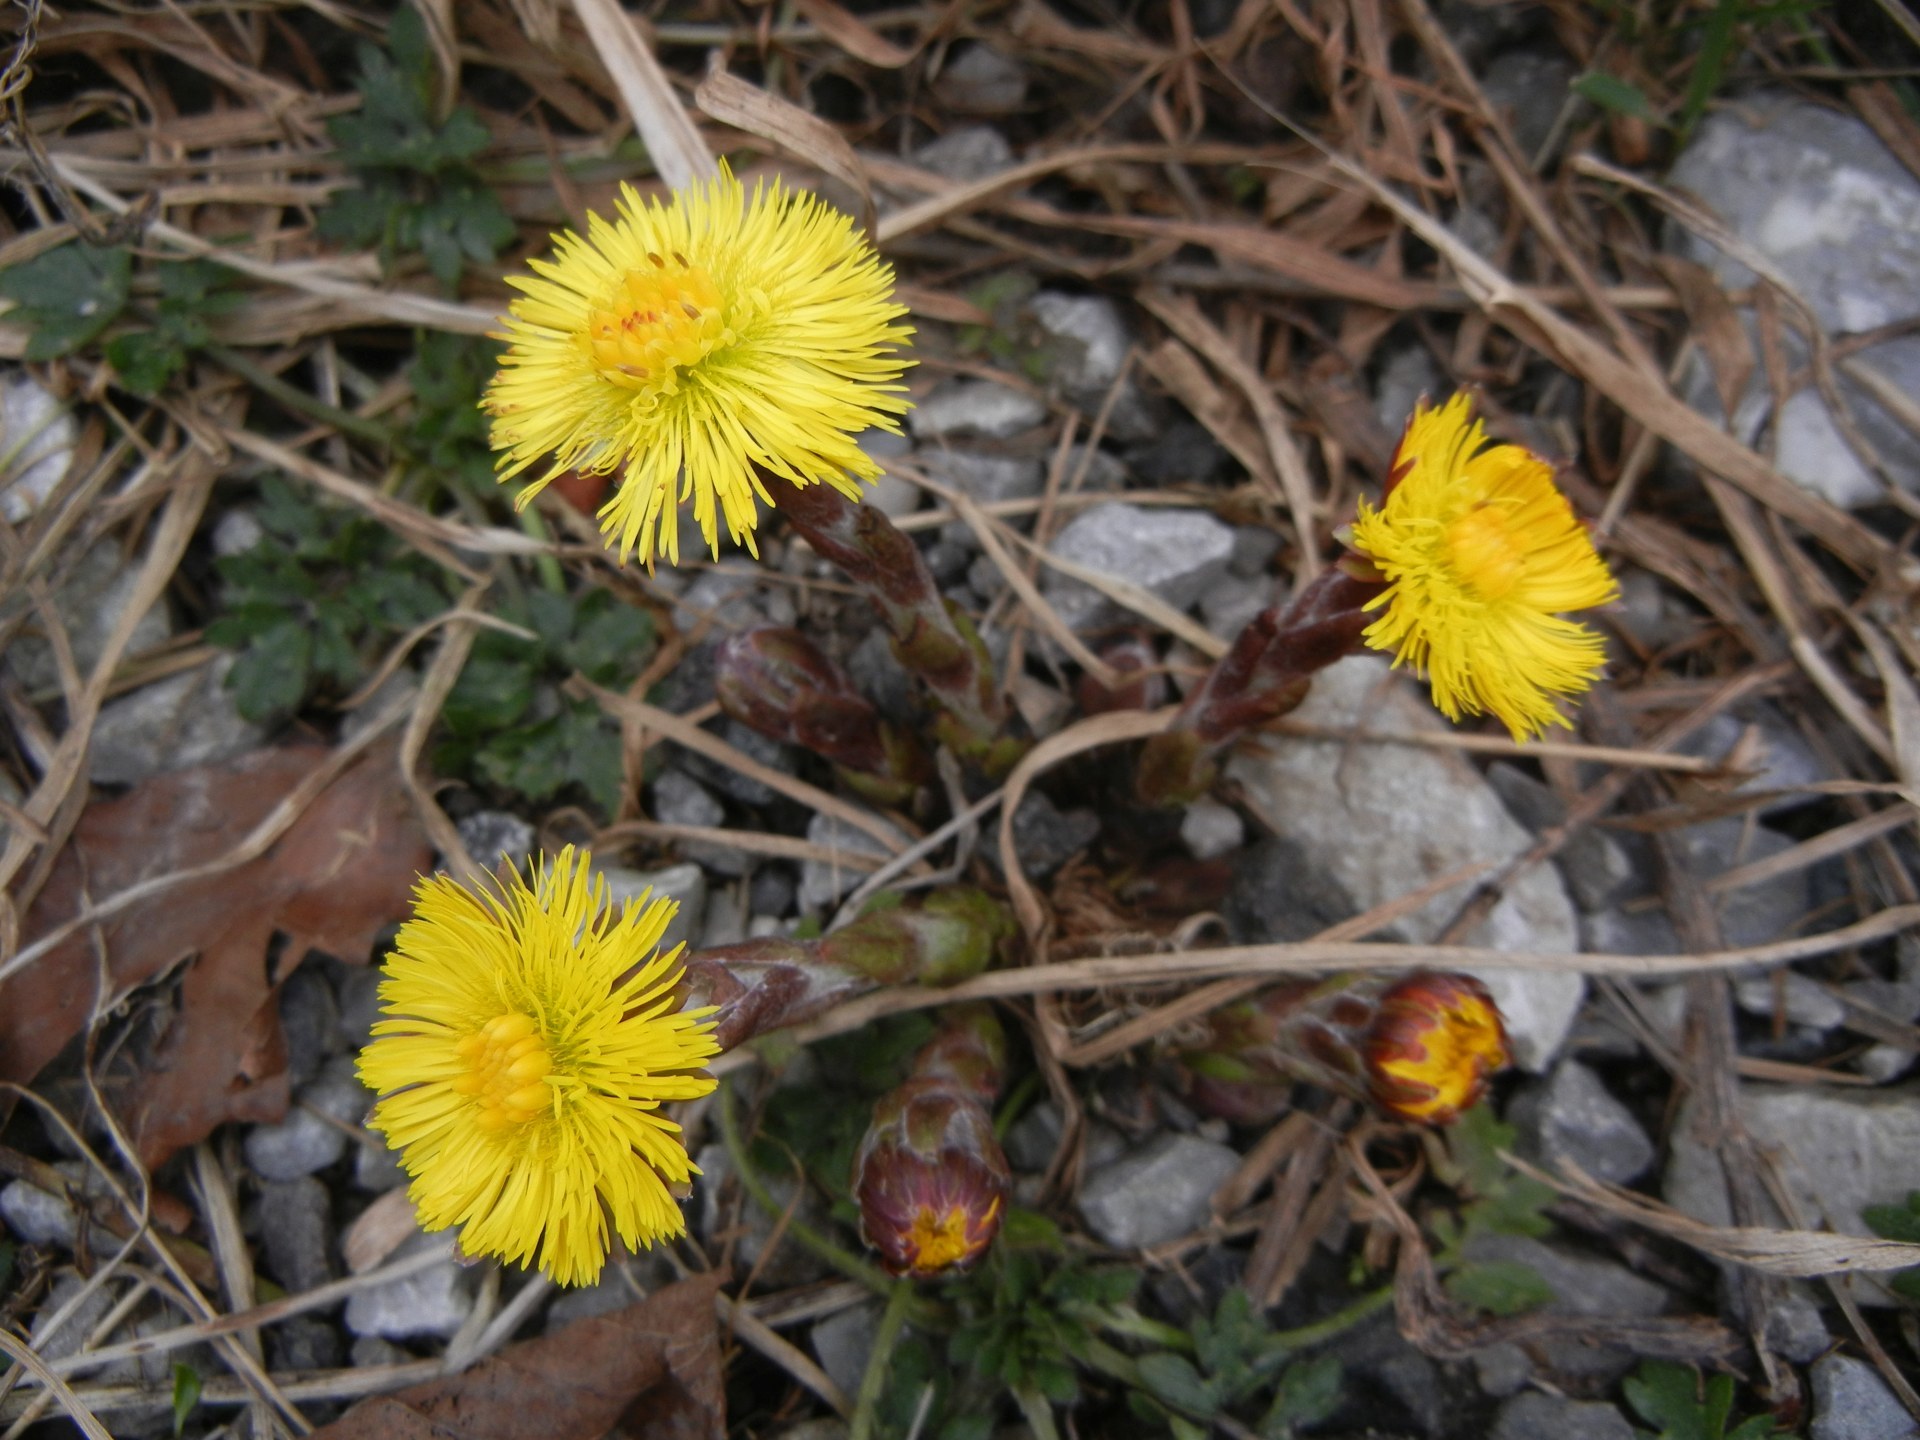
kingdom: Plantae
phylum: Tracheophyta
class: Magnoliopsida
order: Asterales
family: Asteraceae
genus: Tussilago
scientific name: Tussilago farfara
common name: Coltsfoot
